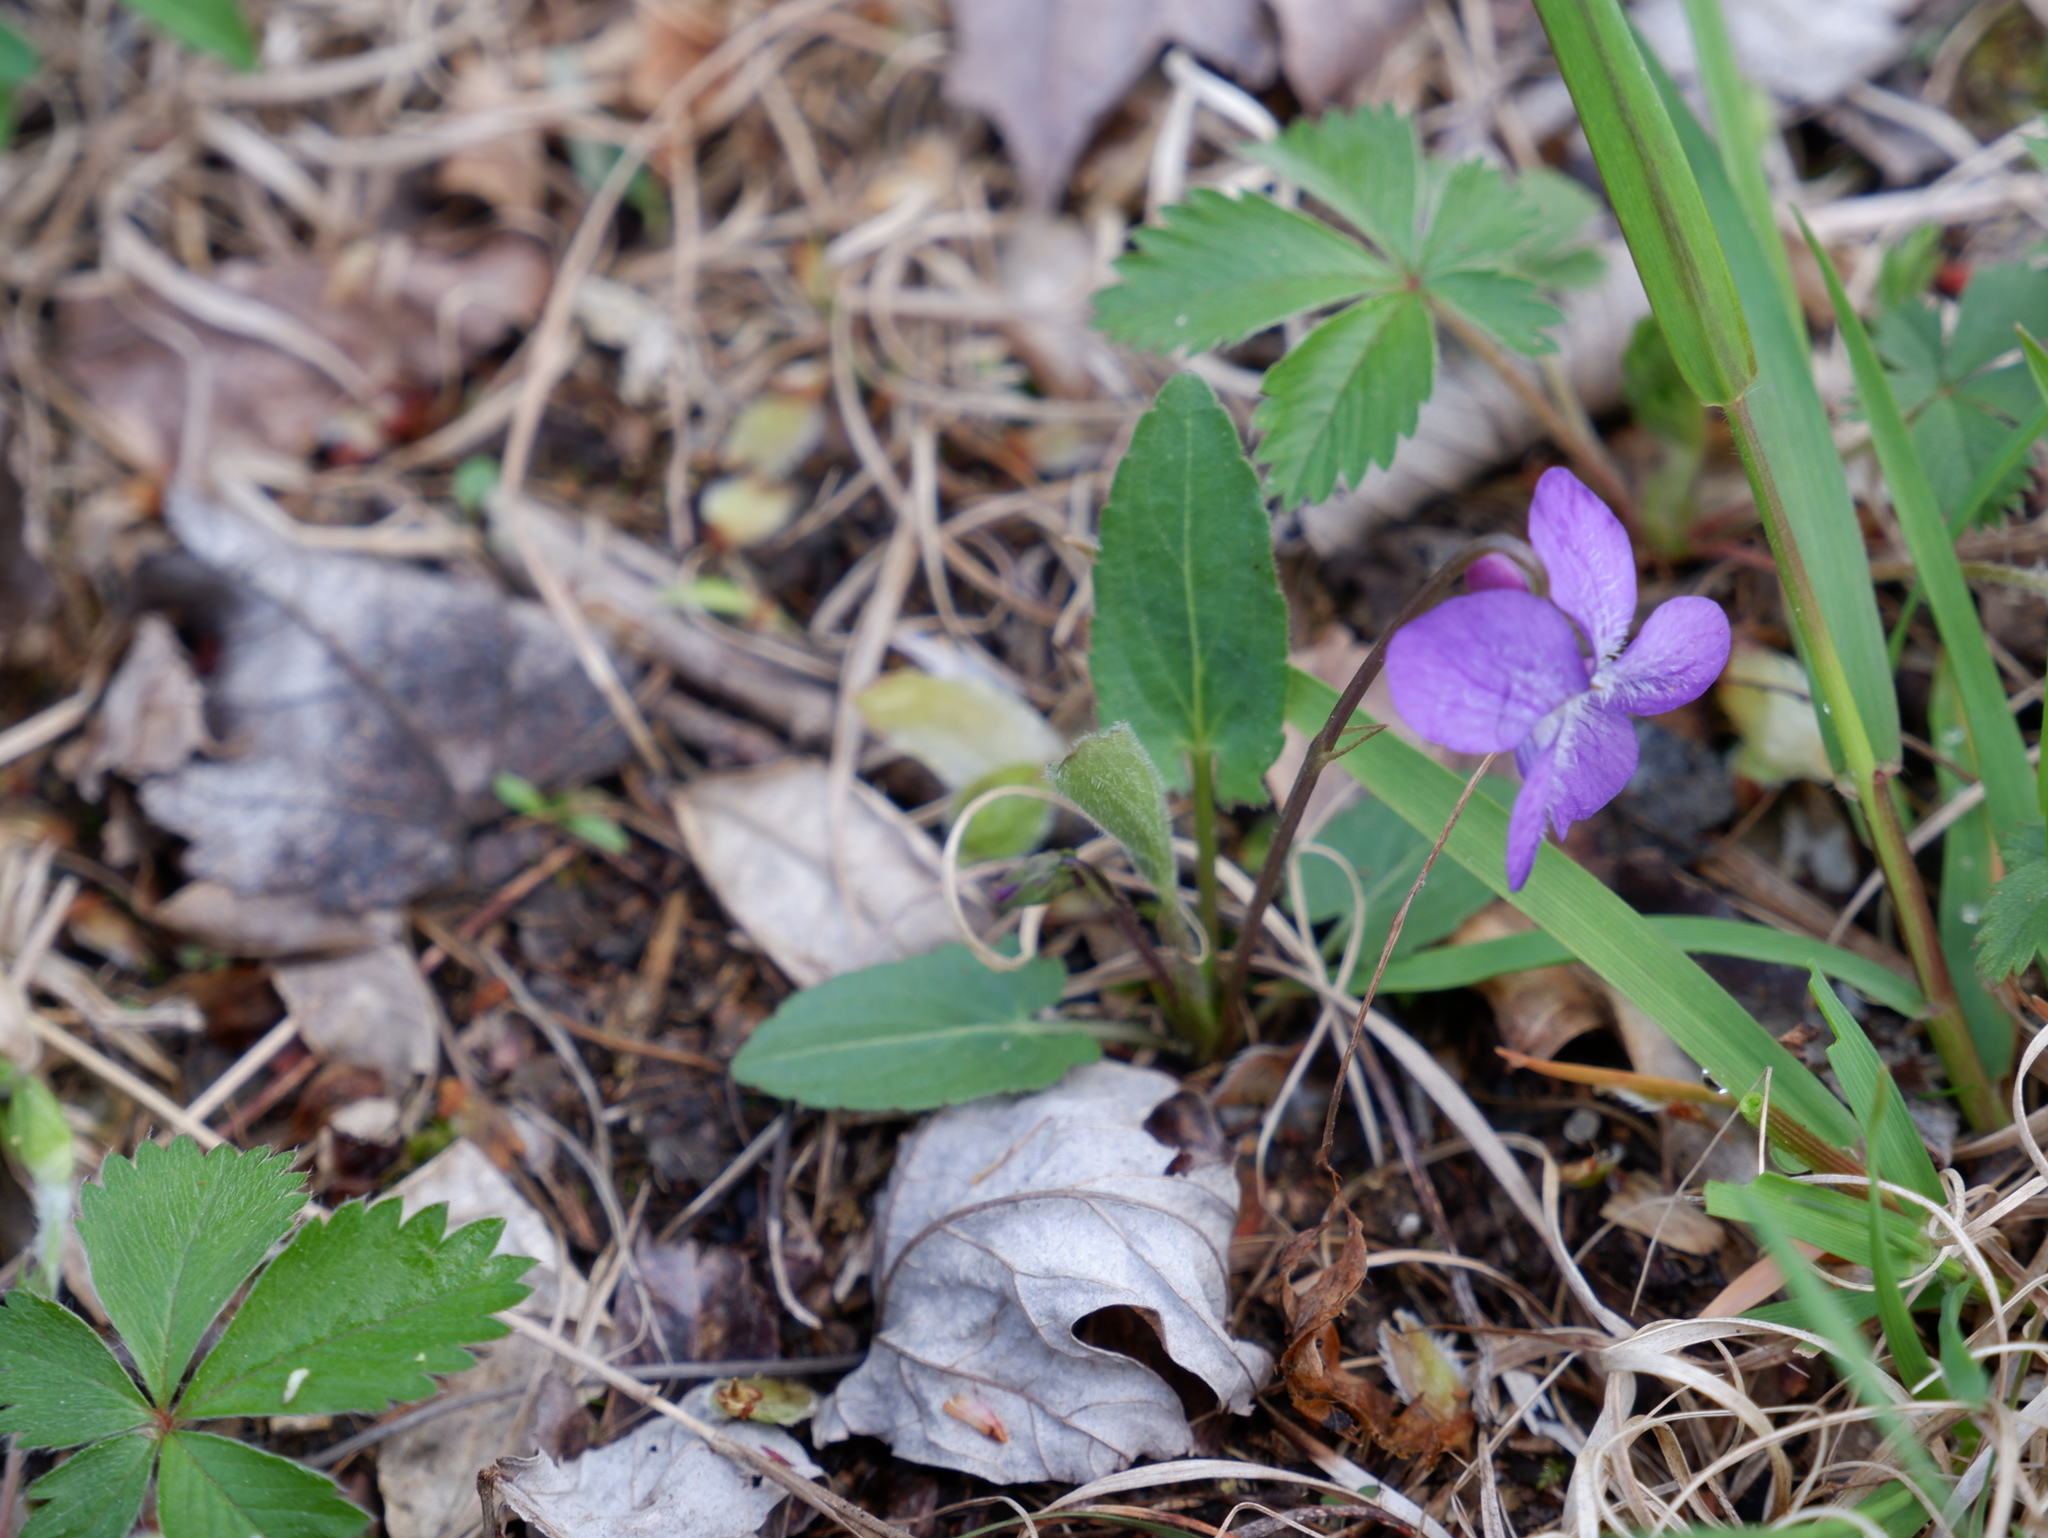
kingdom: Plantae
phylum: Tracheophyta
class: Magnoliopsida
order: Malpighiales
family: Violaceae
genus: Viola
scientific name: Viola sagittata
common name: Arrowhead violet
